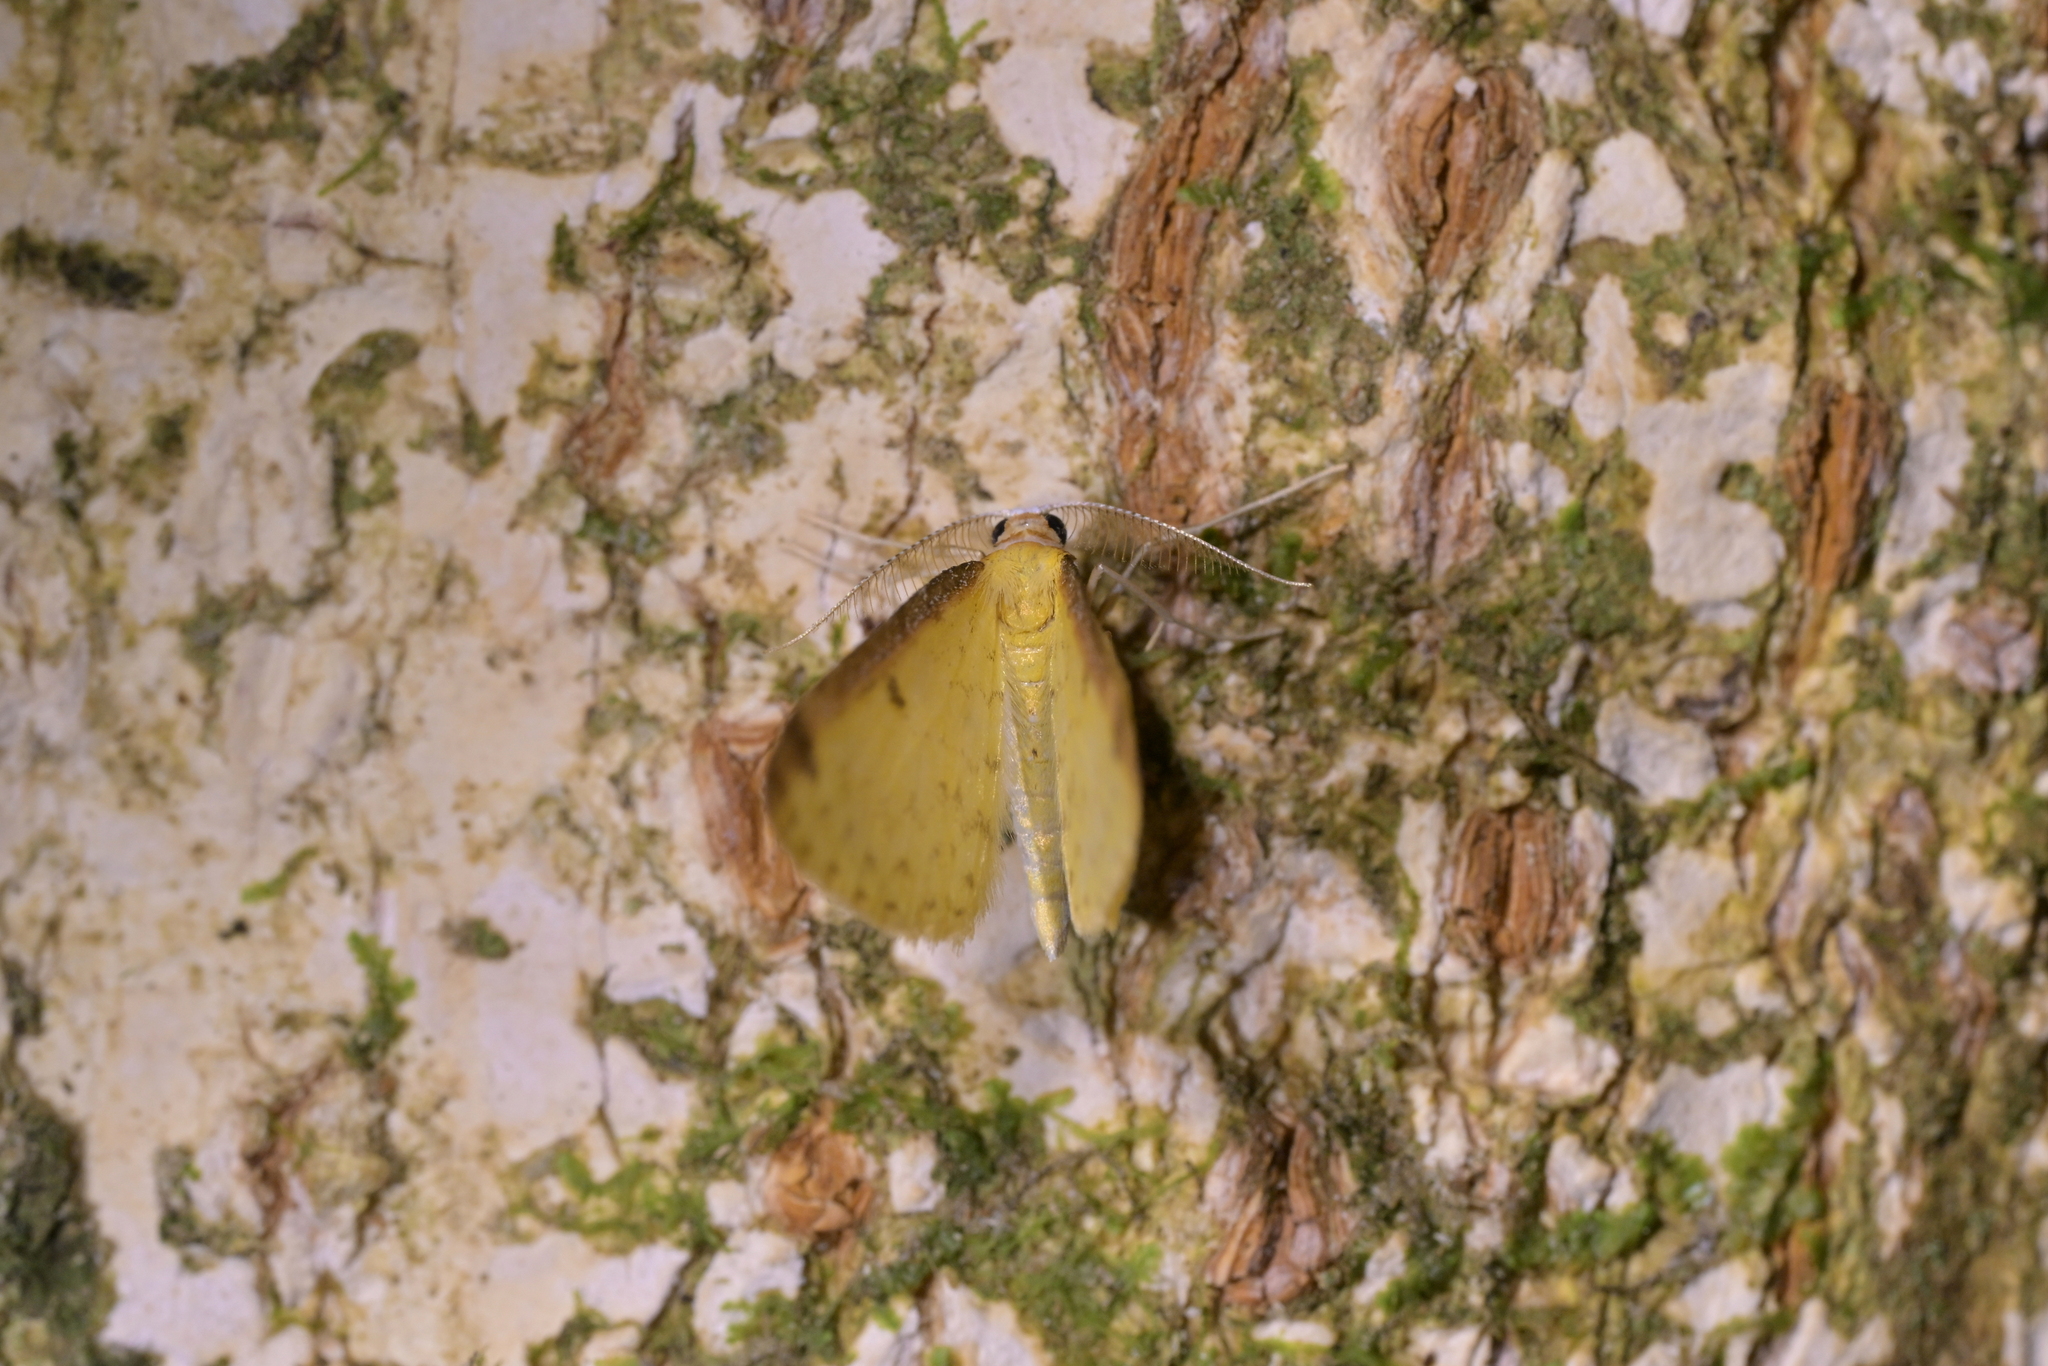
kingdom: Animalia
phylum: Arthropoda
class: Insecta
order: Lepidoptera
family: Geometridae
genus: Epiphryne
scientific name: Epiphryne undosata
